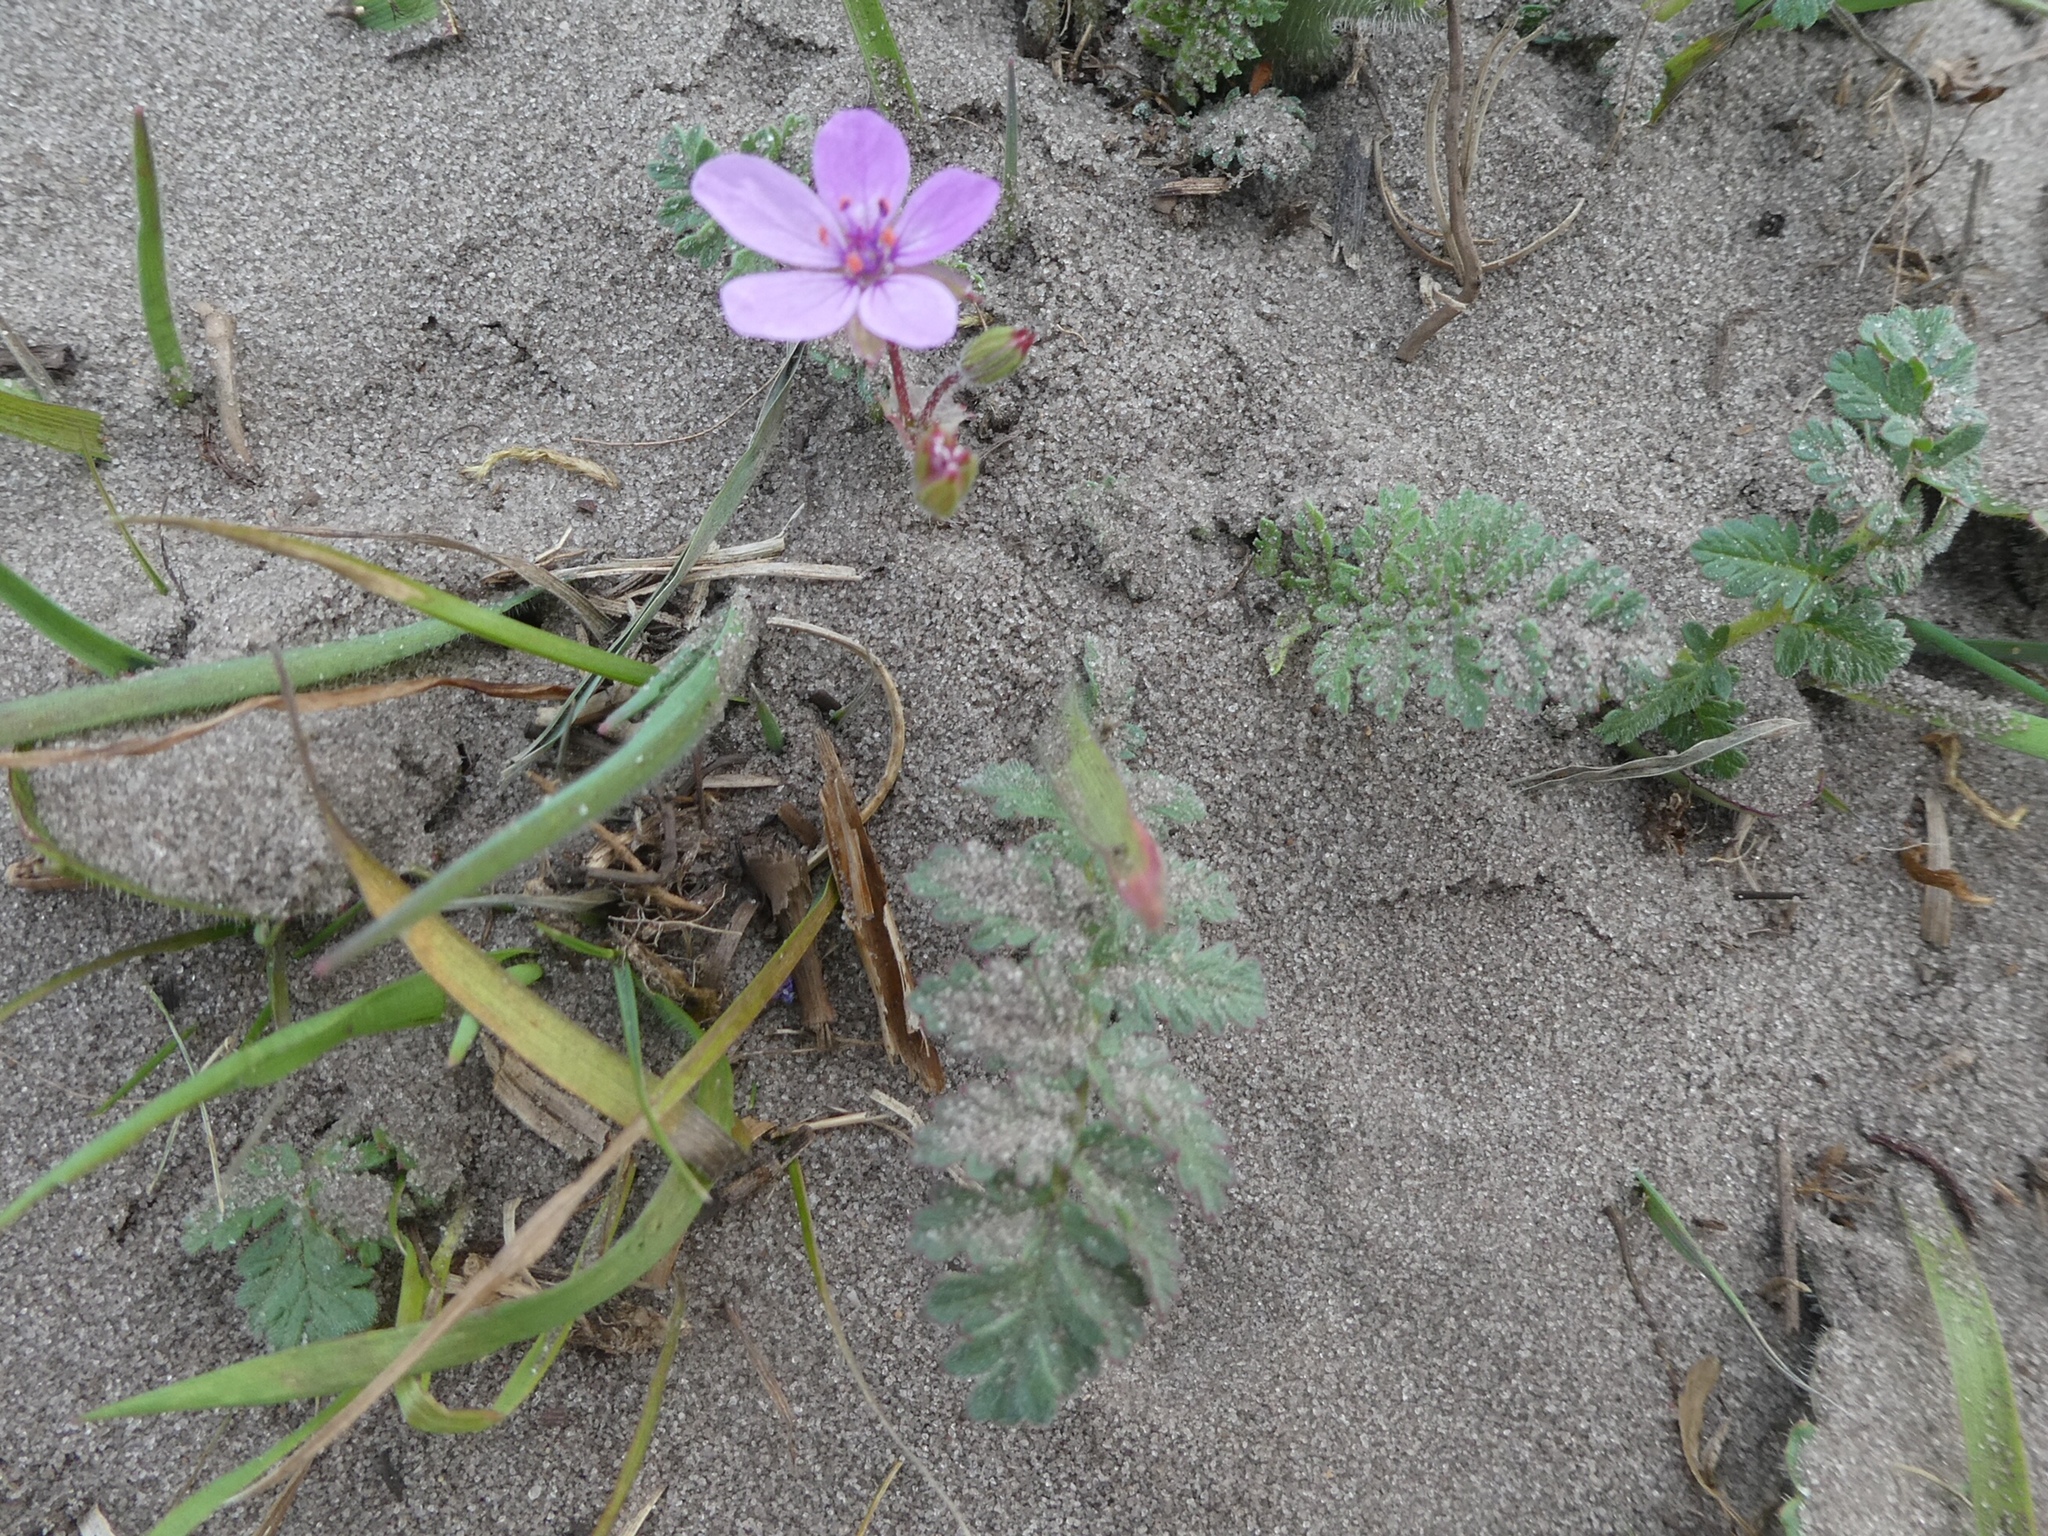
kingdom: Plantae
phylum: Tracheophyta
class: Magnoliopsida
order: Geraniales
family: Geraniaceae
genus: Erodium
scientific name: Erodium cicutarium
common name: Common stork's-bill
